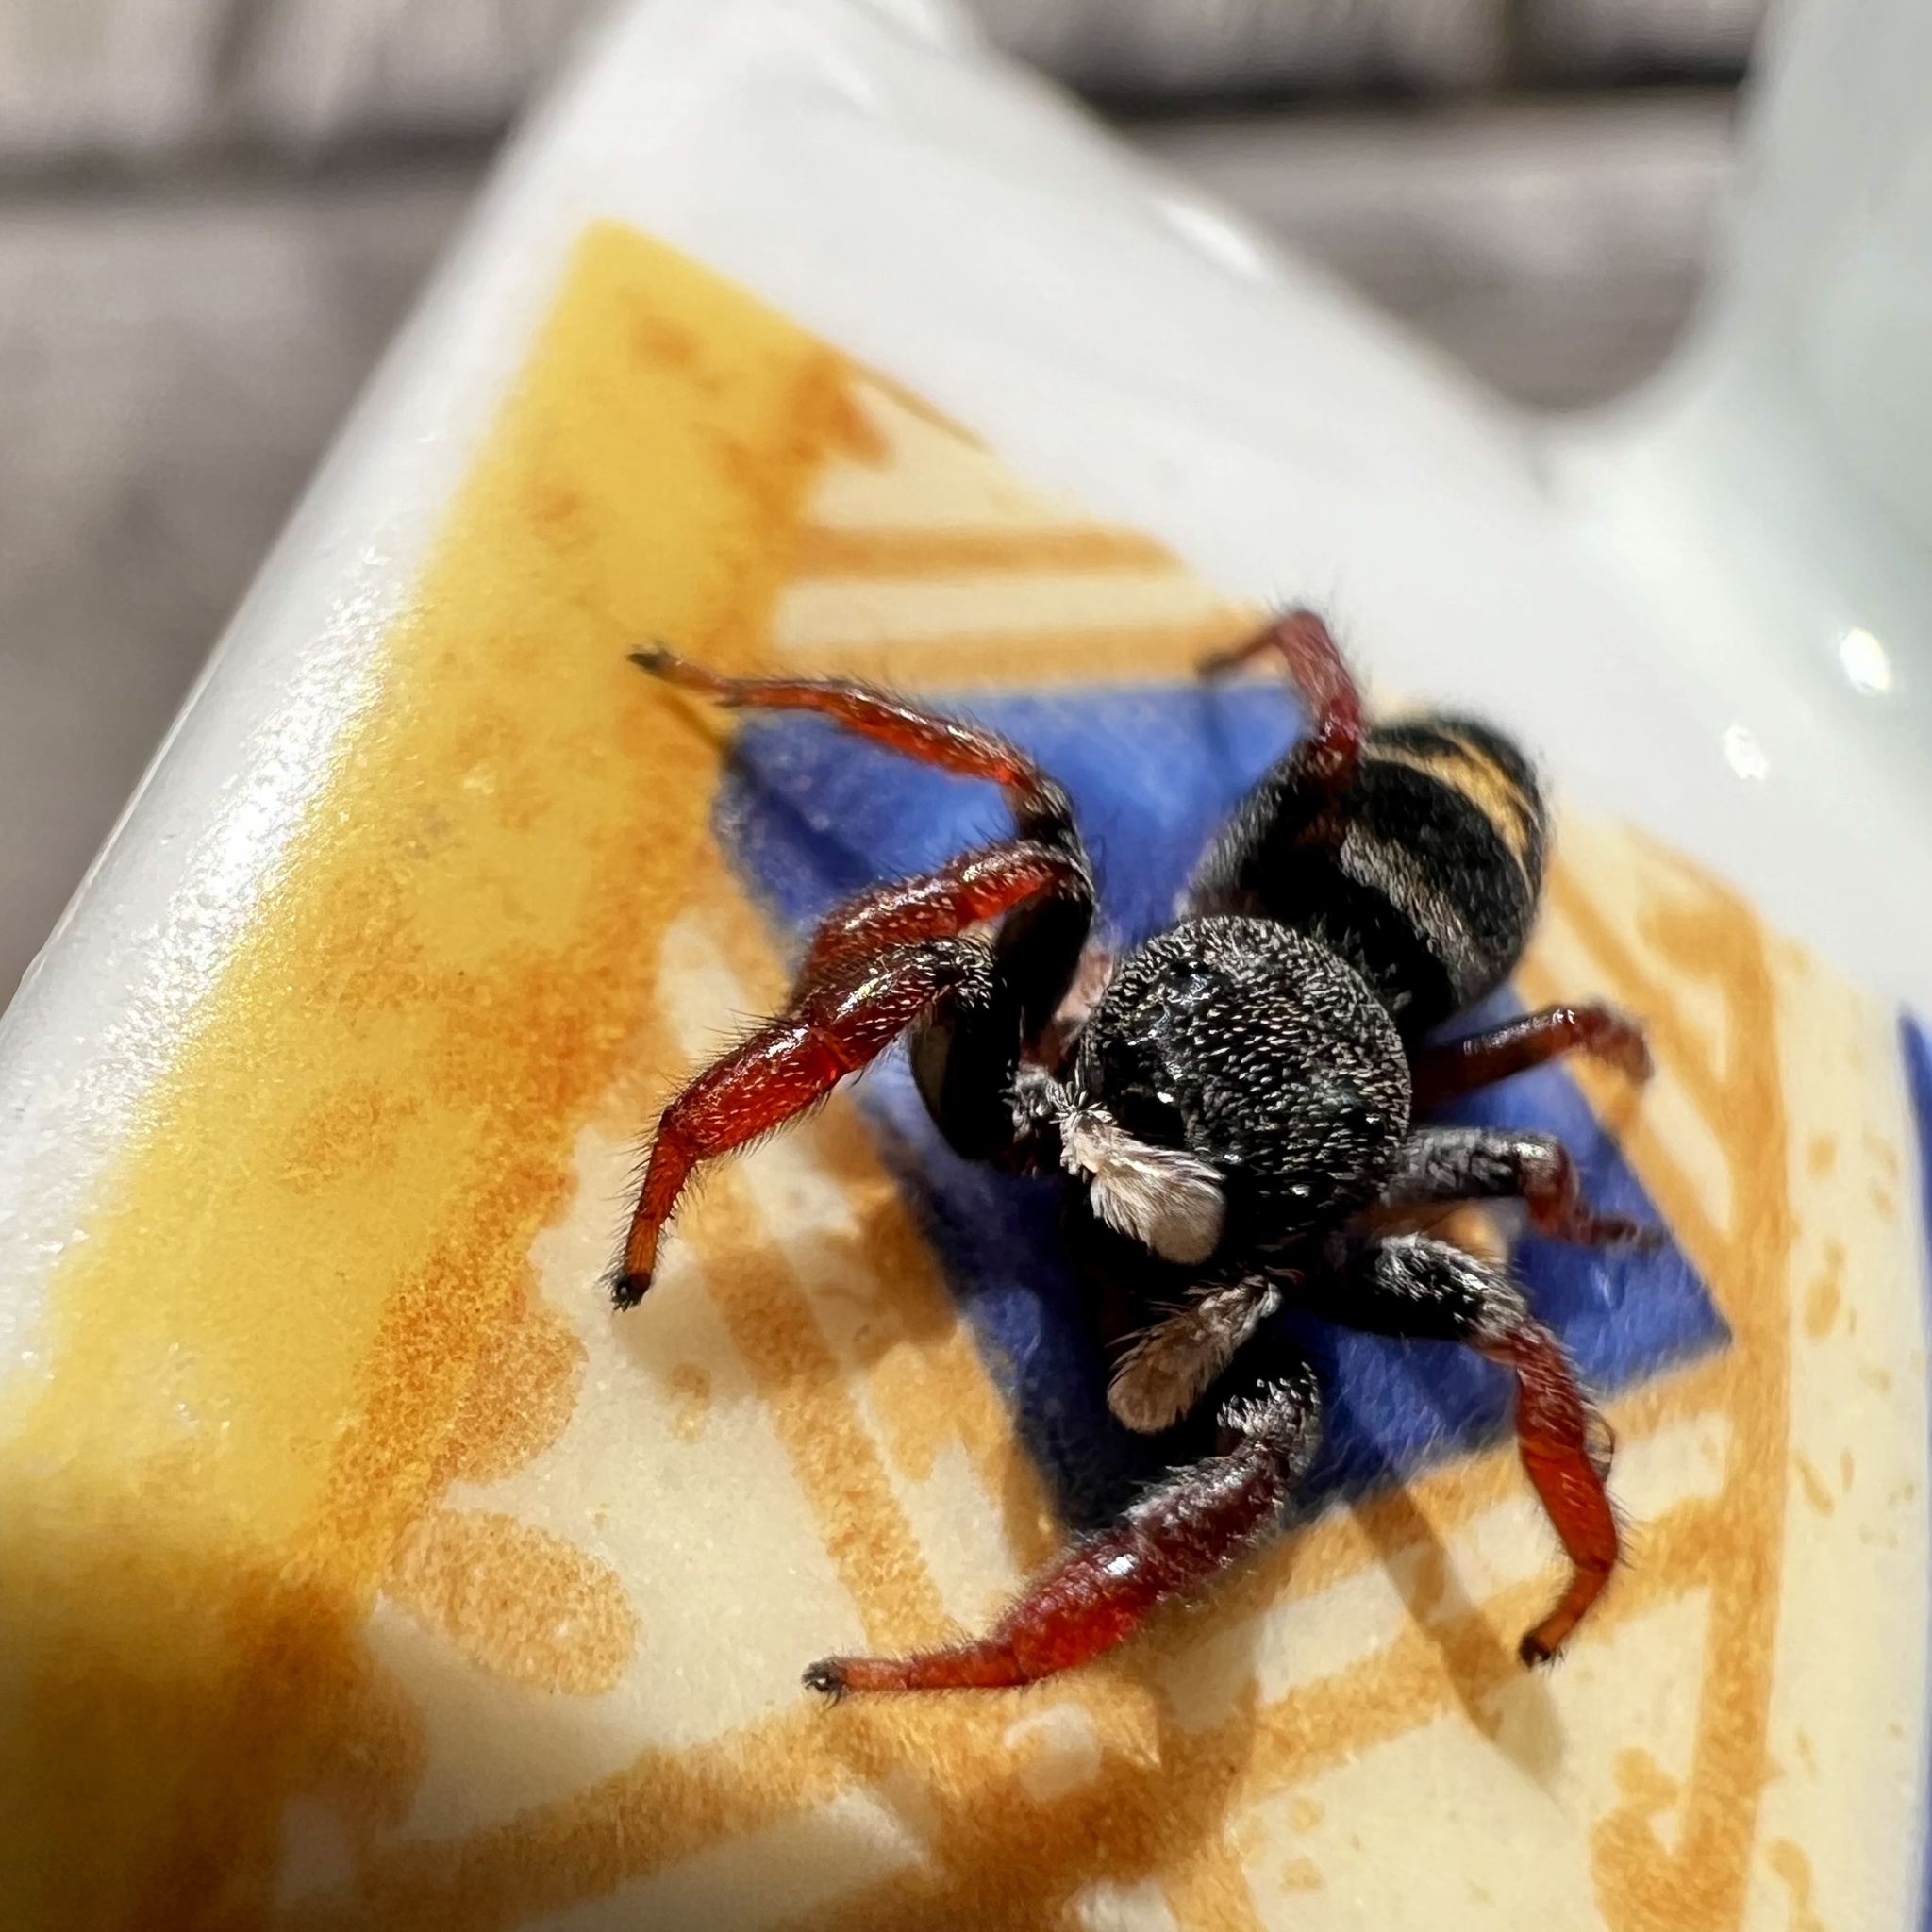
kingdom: Animalia
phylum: Arthropoda
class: Arachnida
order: Araneae
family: Salticidae
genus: Apricia
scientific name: Apricia jovialis
